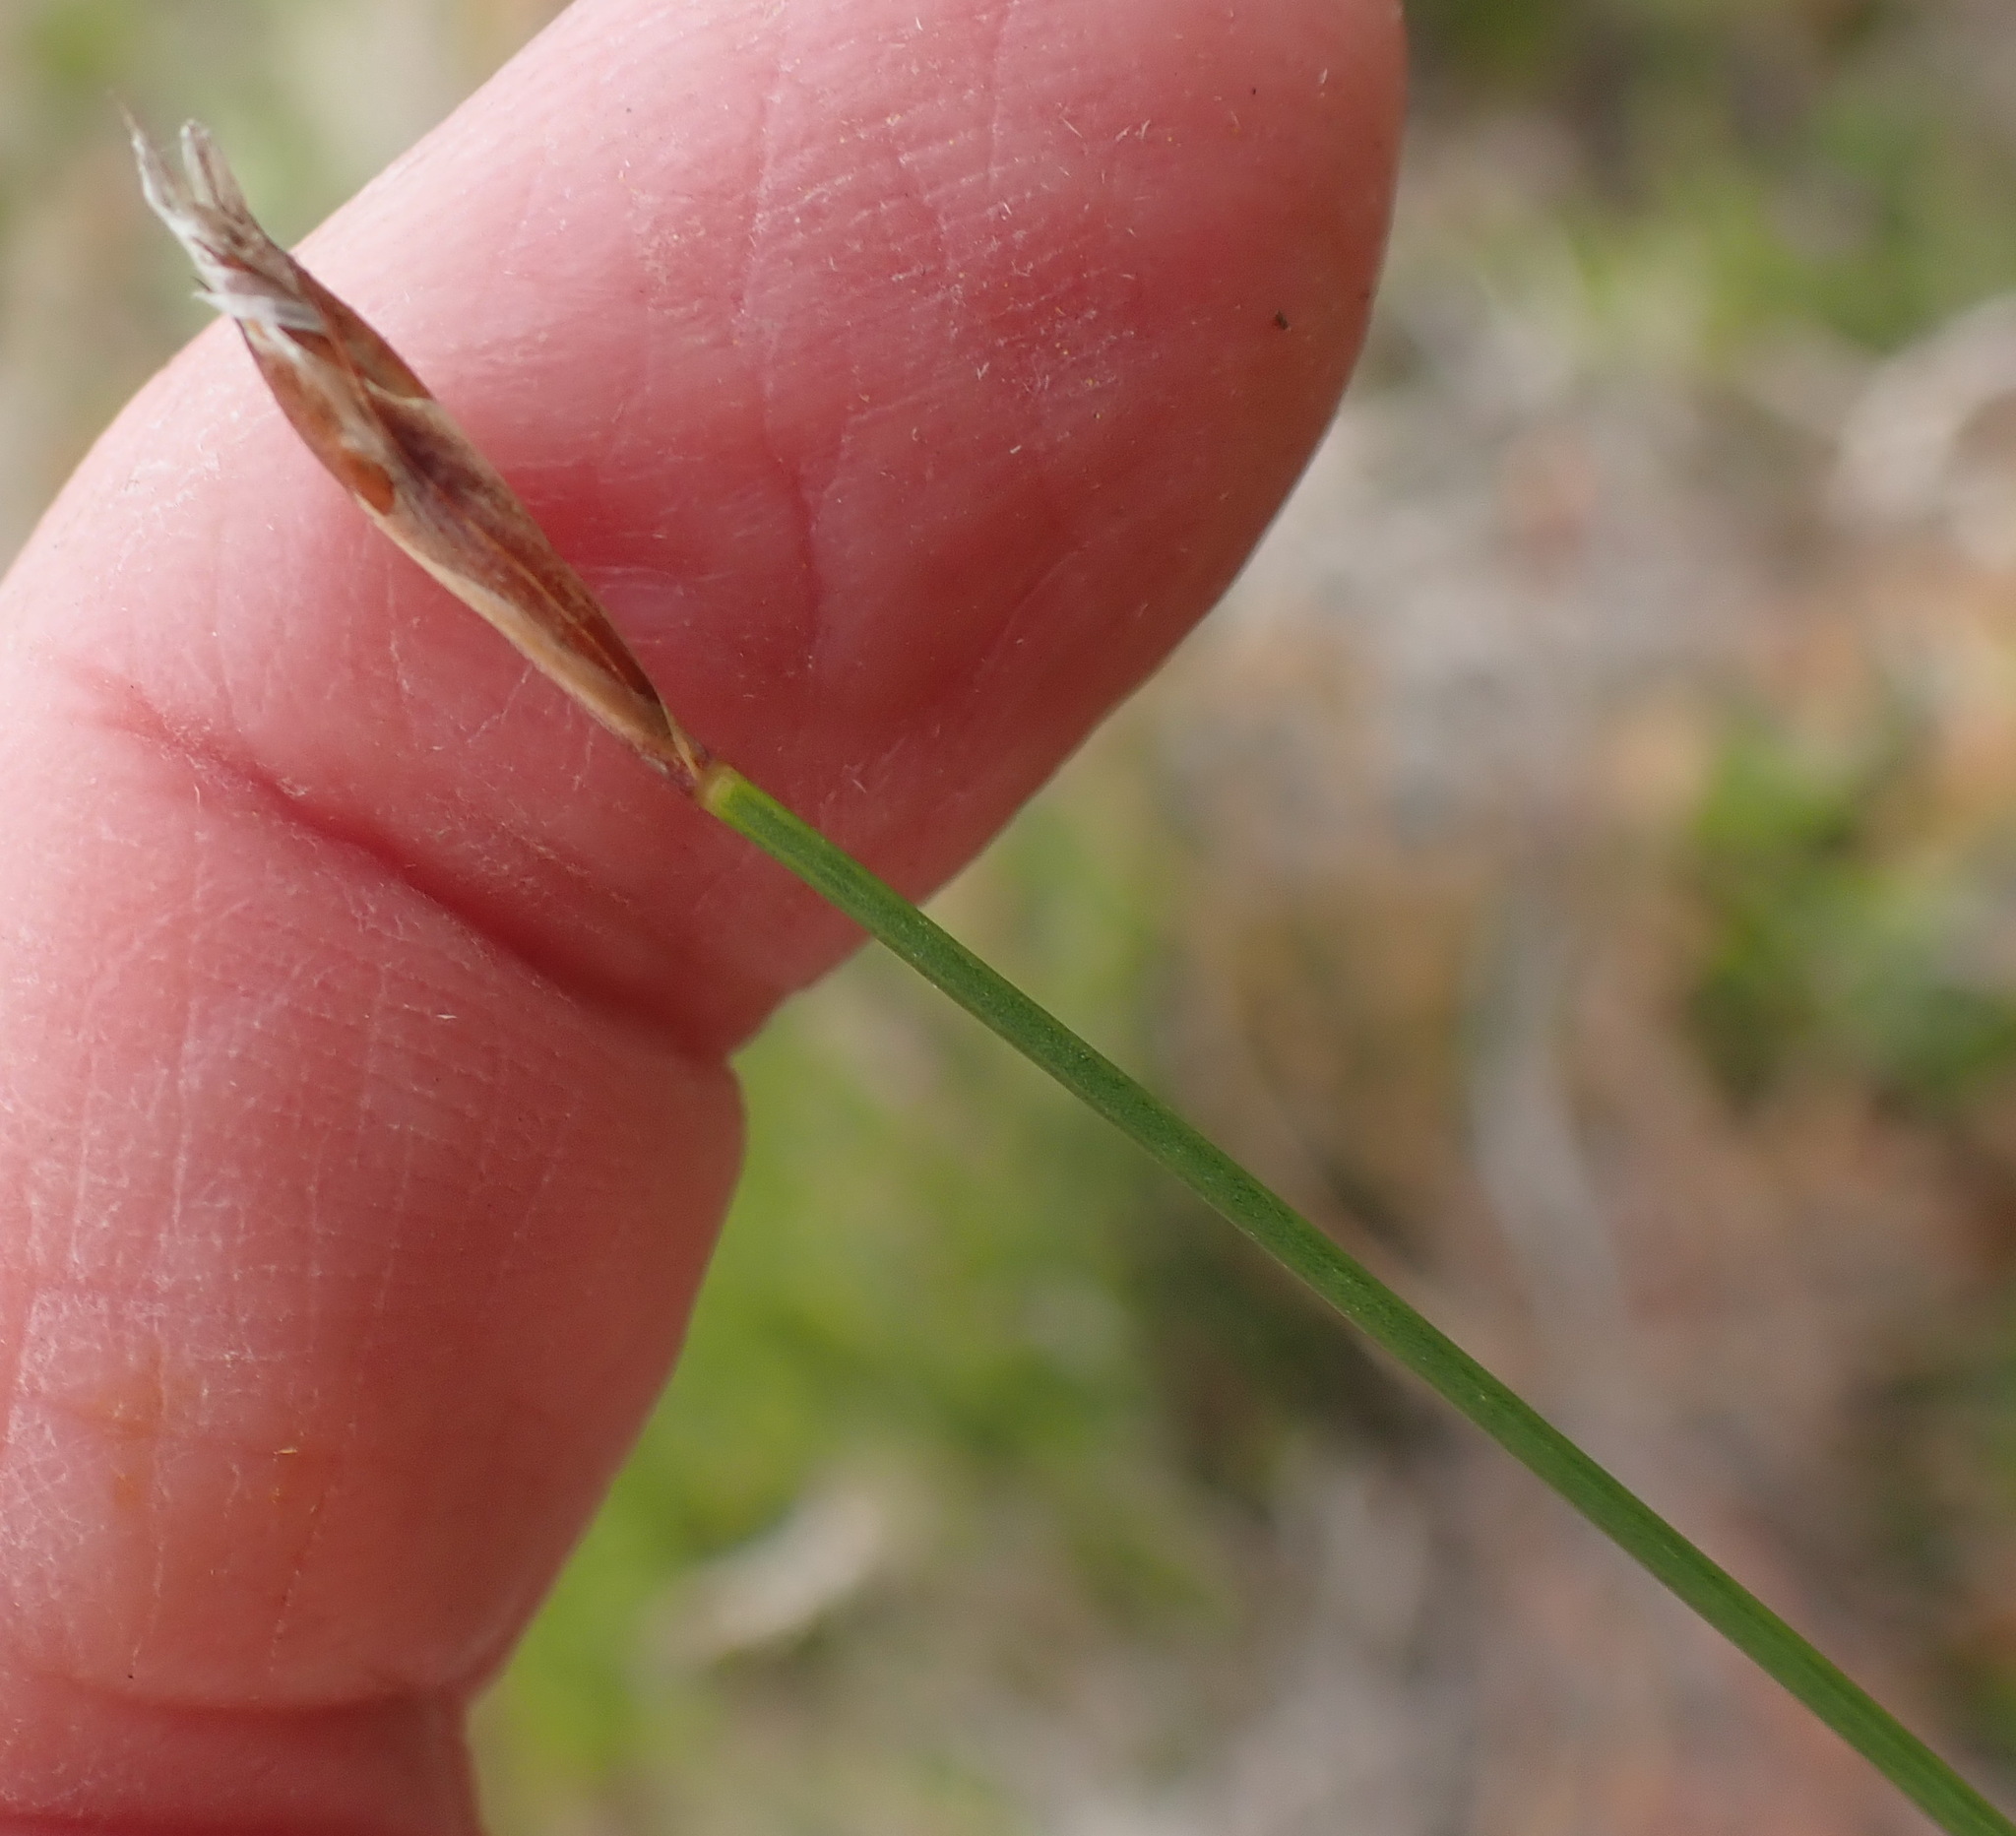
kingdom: Plantae
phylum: Tracheophyta
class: Liliopsida
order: Poales
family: Restionaceae
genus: Restio
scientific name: Restio eleocharis
